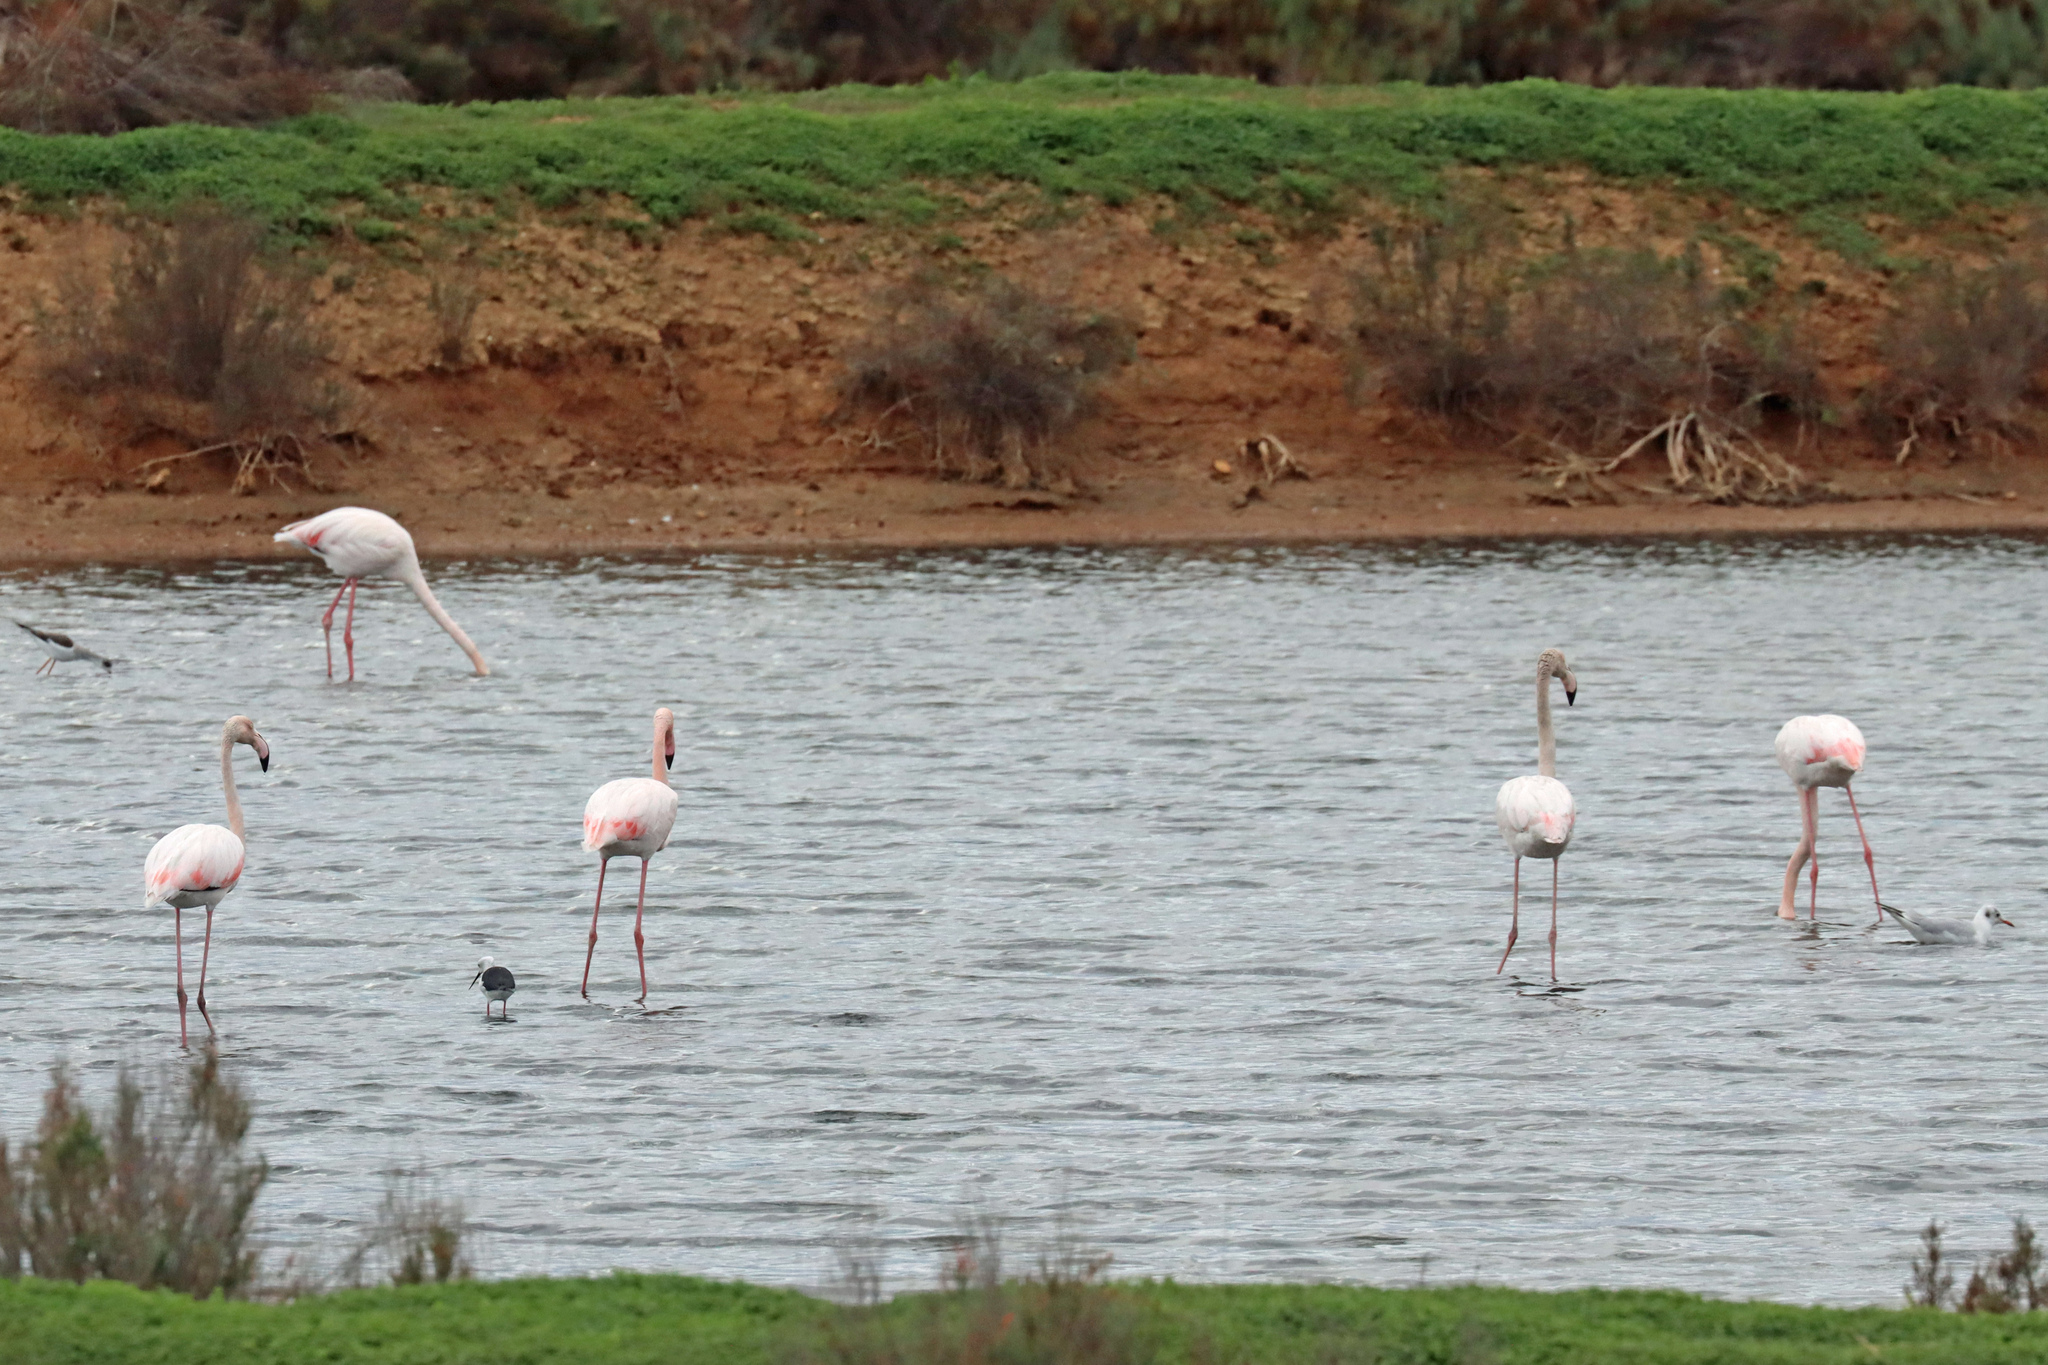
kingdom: Animalia
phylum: Chordata
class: Aves
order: Charadriiformes
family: Recurvirostridae
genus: Himantopus
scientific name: Himantopus himantopus
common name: Black-winged stilt
